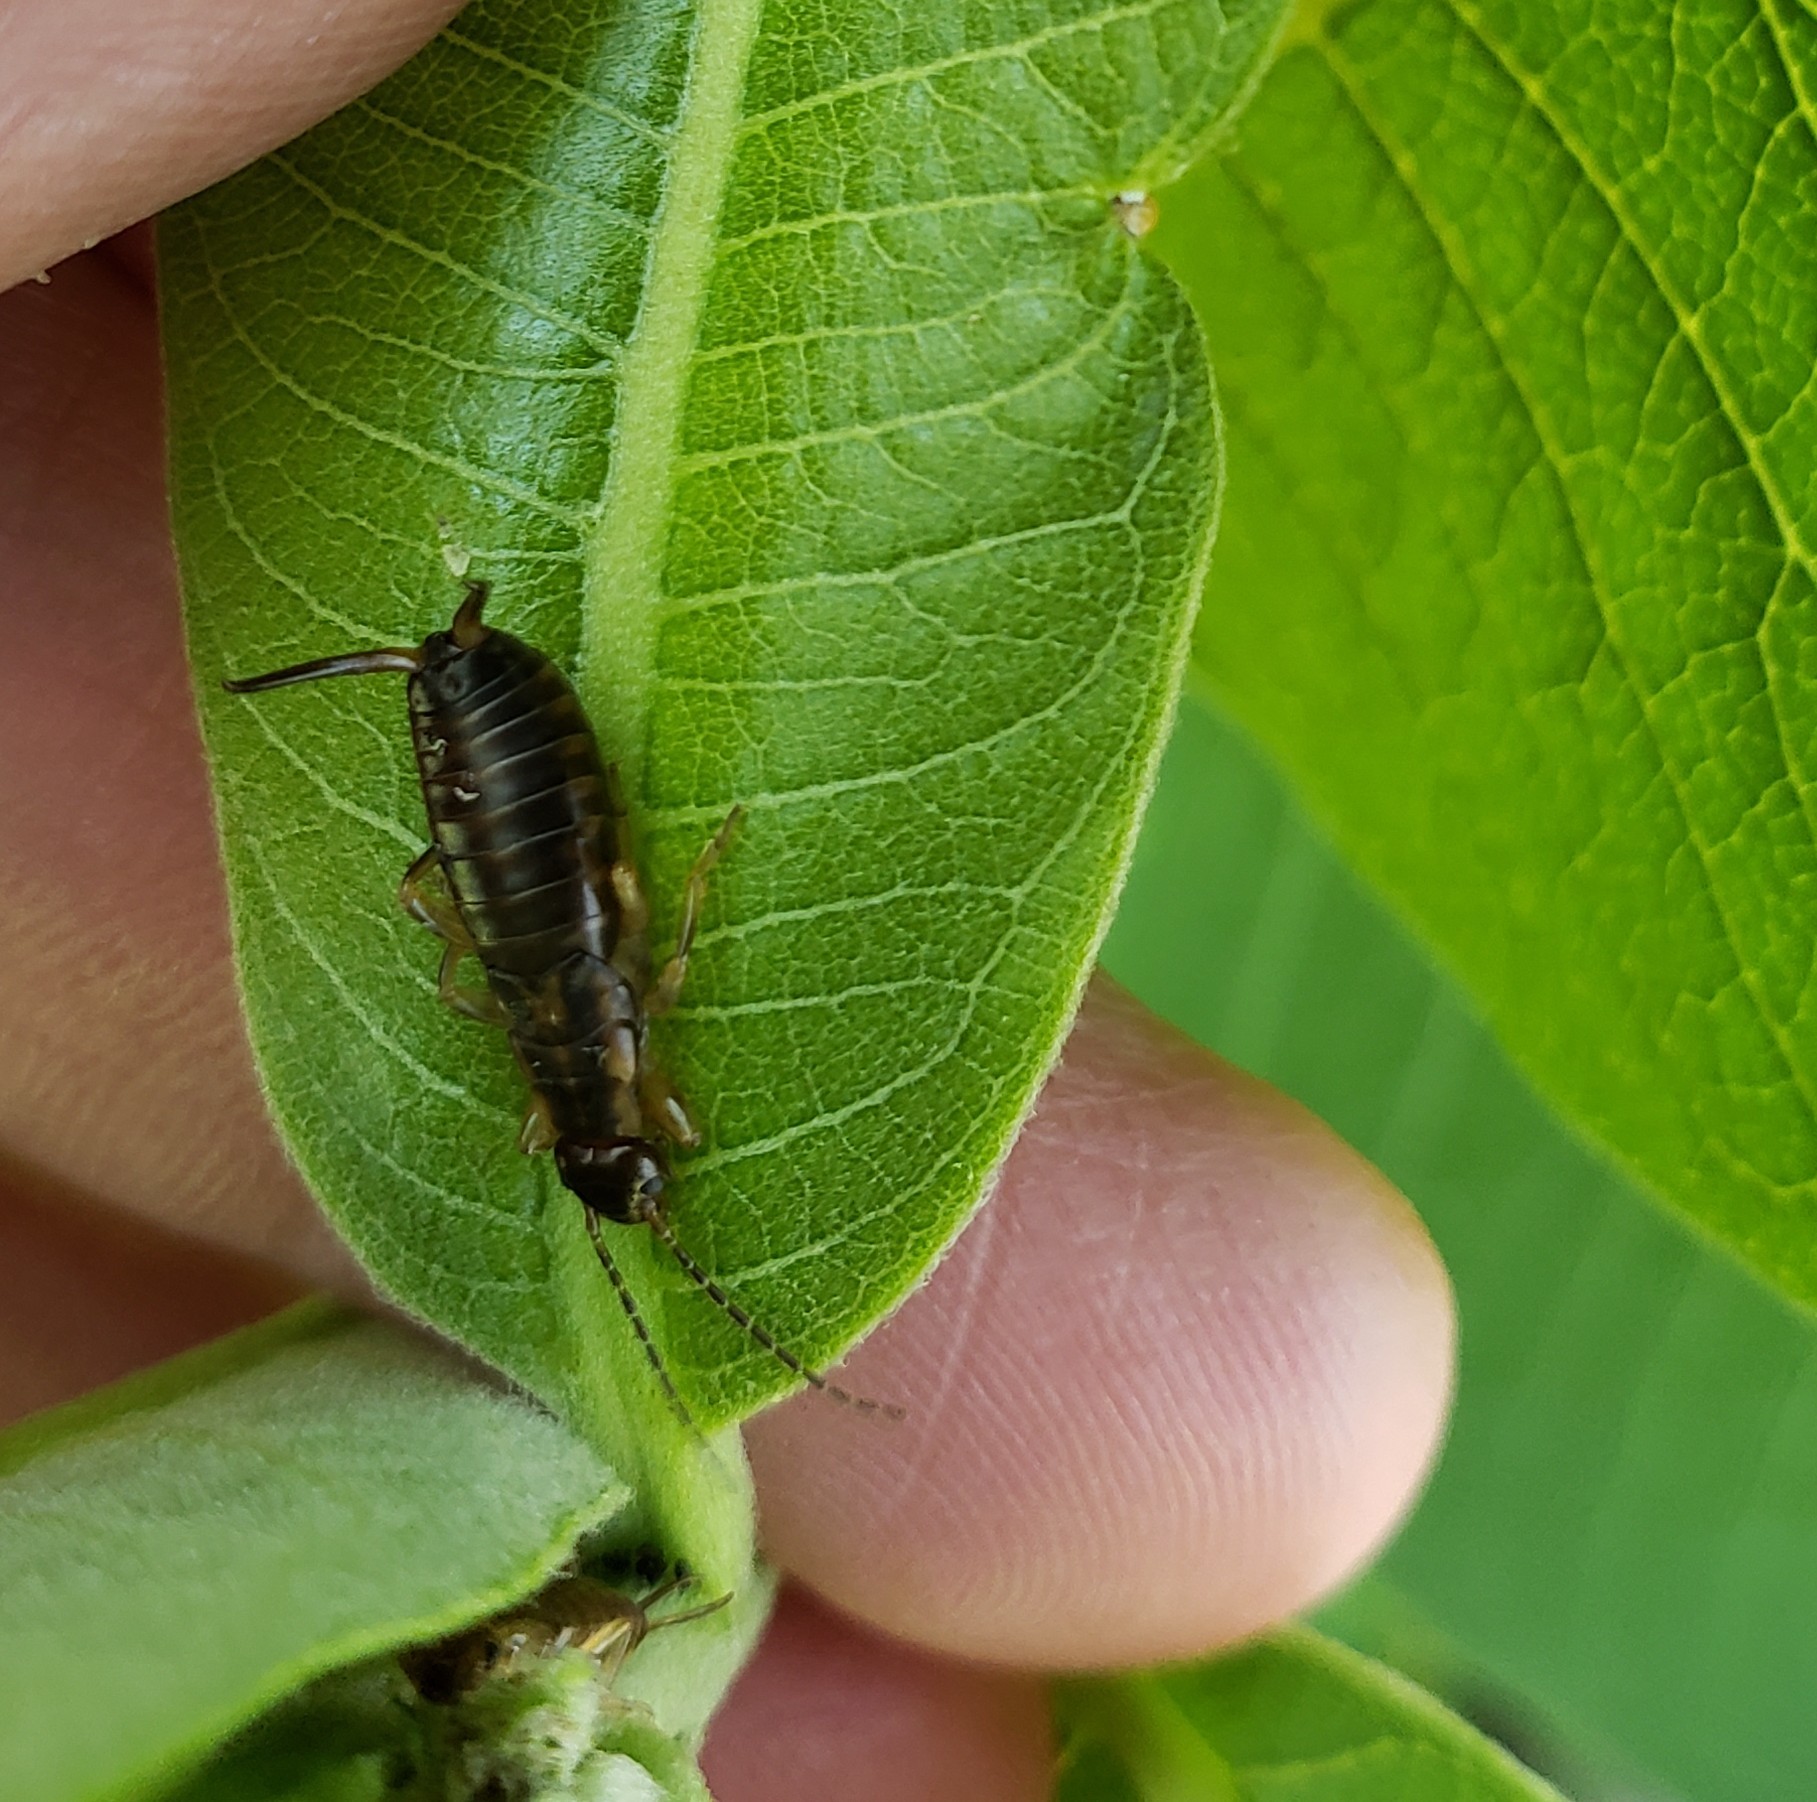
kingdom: Animalia
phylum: Arthropoda
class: Insecta
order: Dermaptera
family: Forficulidae
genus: Forficula
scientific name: Forficula
